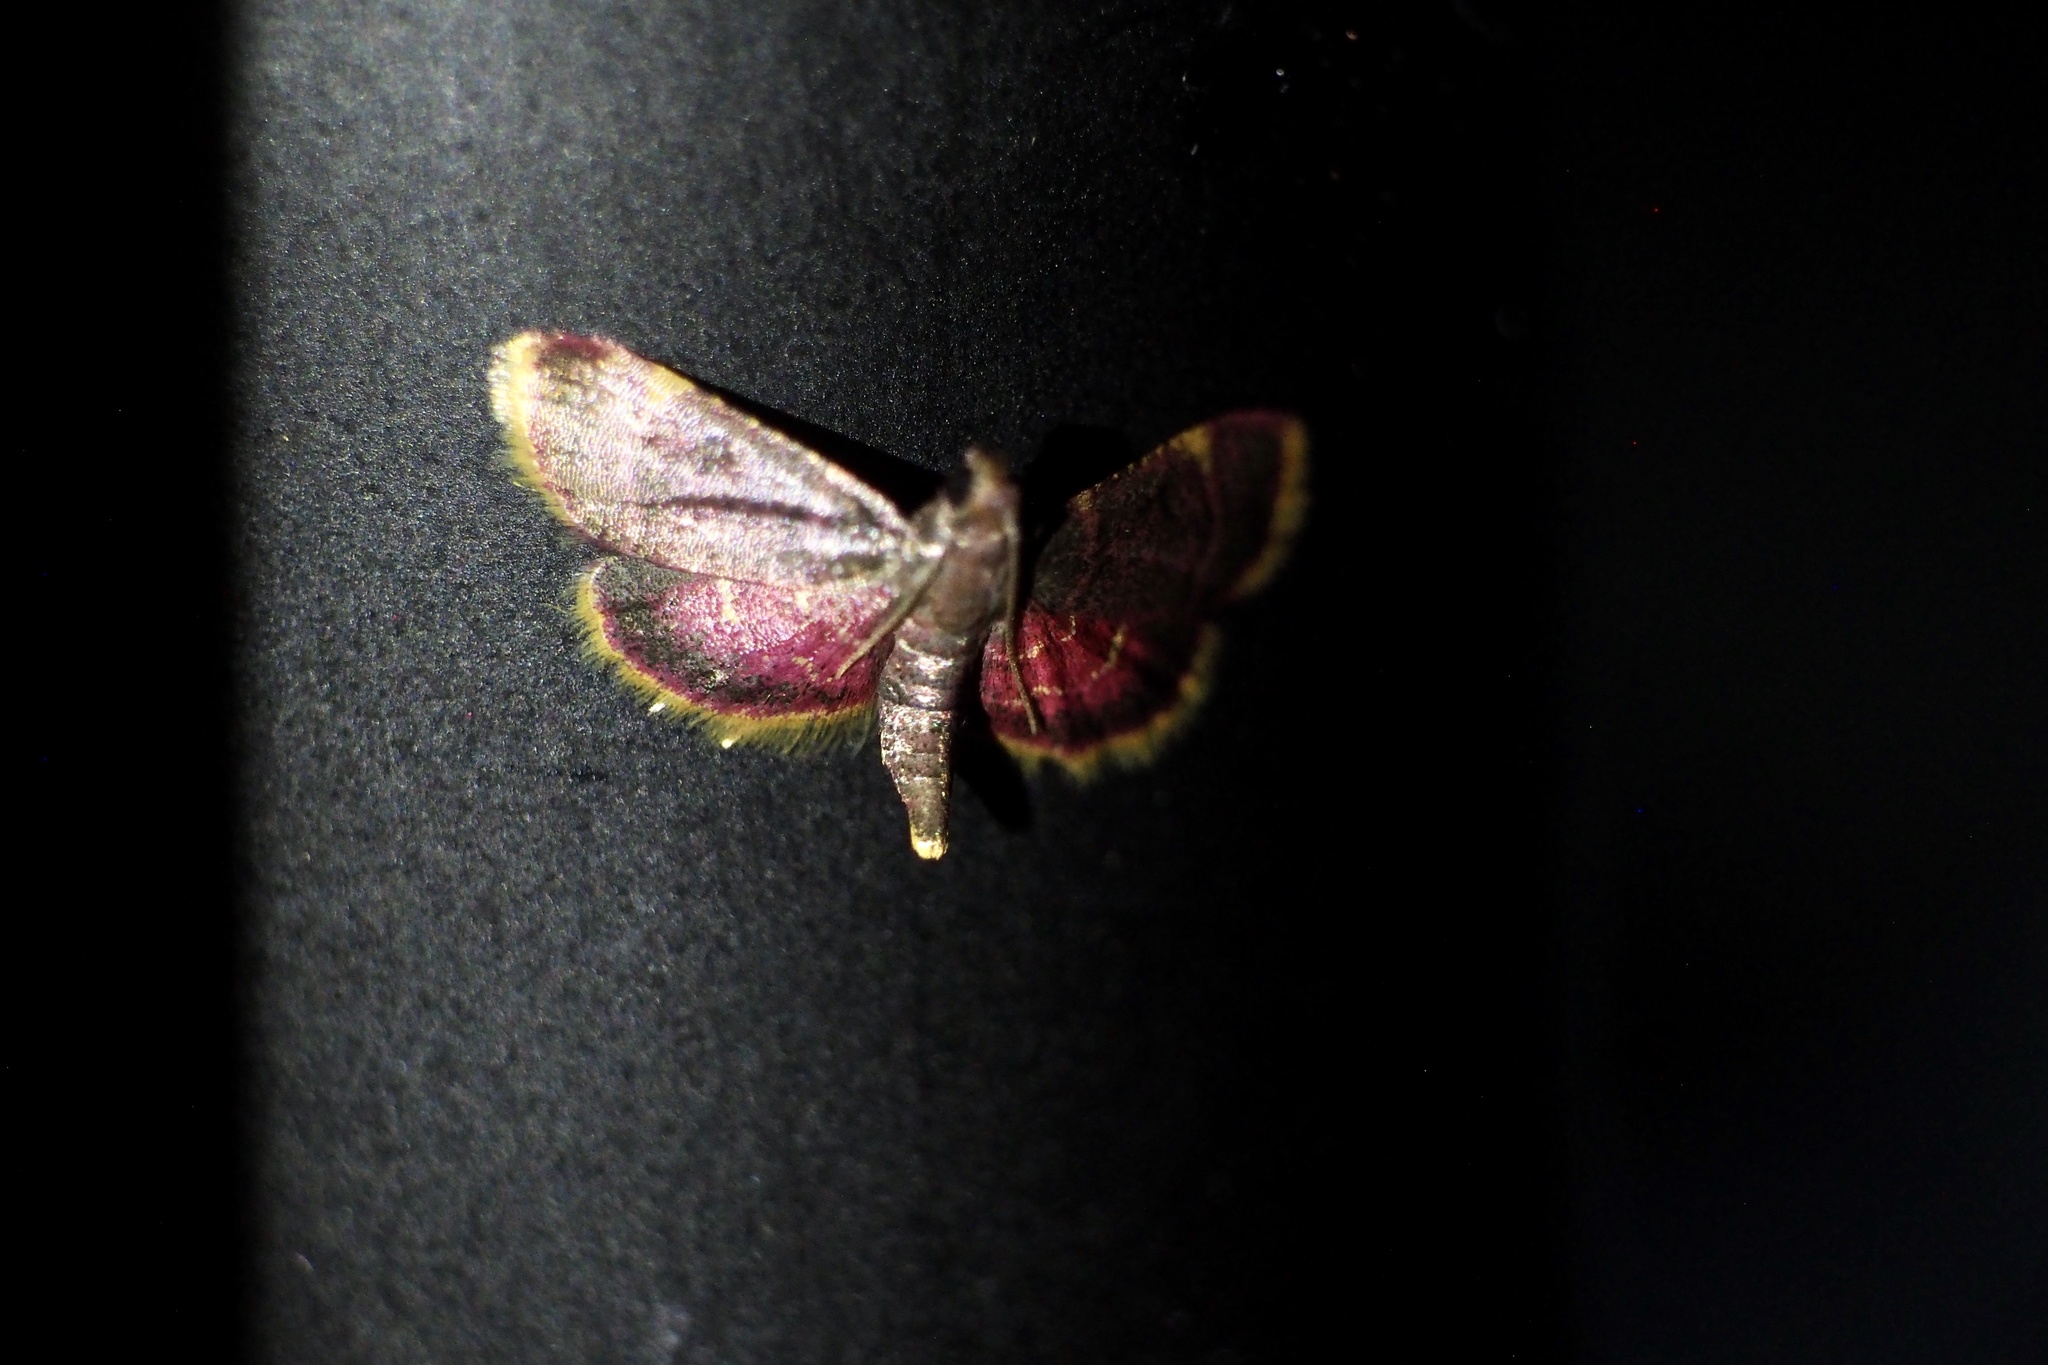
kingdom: Animalia
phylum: Arthropoda
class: Insecta
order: Lepidoptera
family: Pyralidae
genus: Hypsopygia
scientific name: Hypsopygia regina
